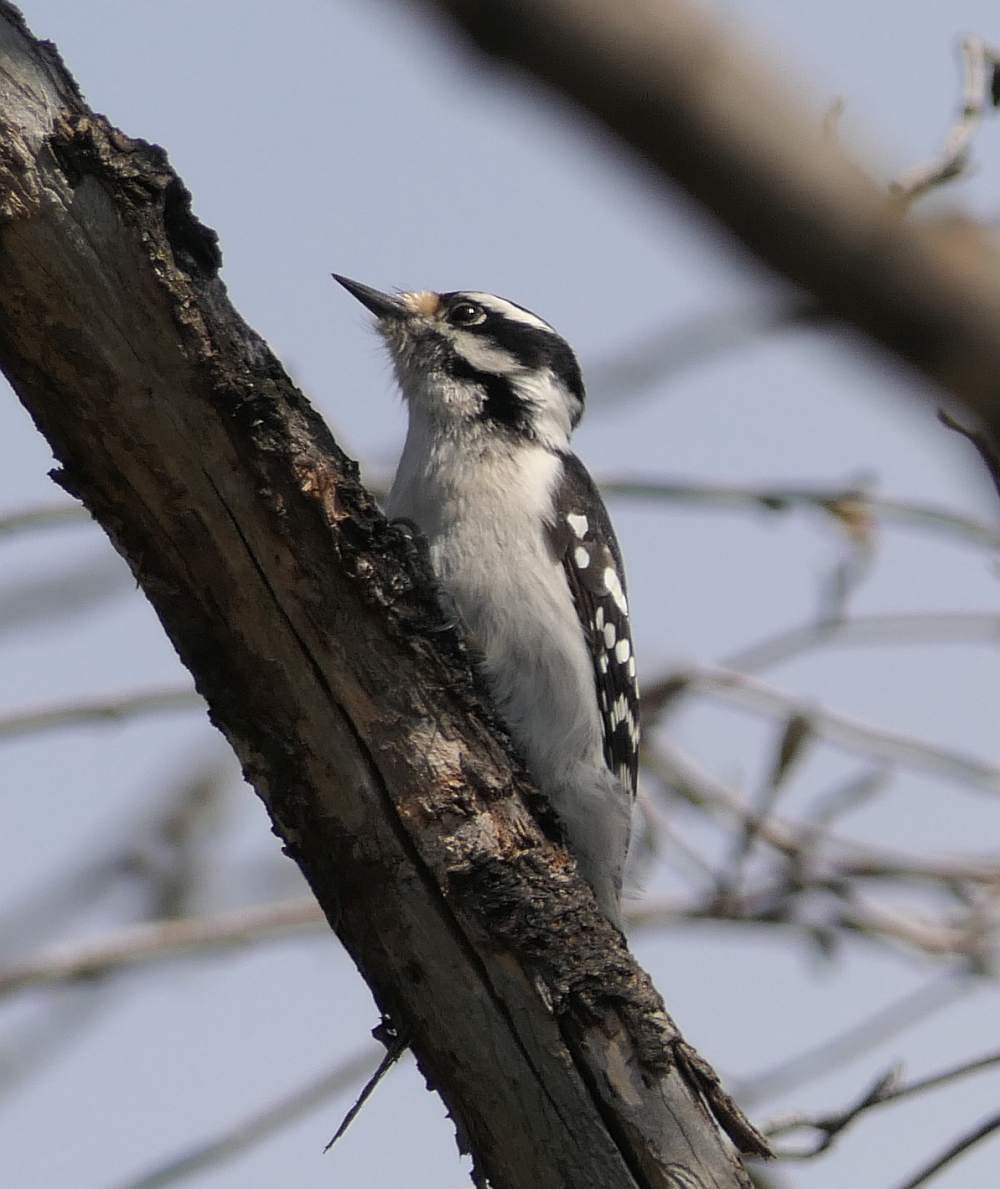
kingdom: Animalia
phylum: Chordata
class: Aves
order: Piciformes
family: Picidae
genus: Dryobates
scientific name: Dryobates pubescens
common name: Downy woodpecker
